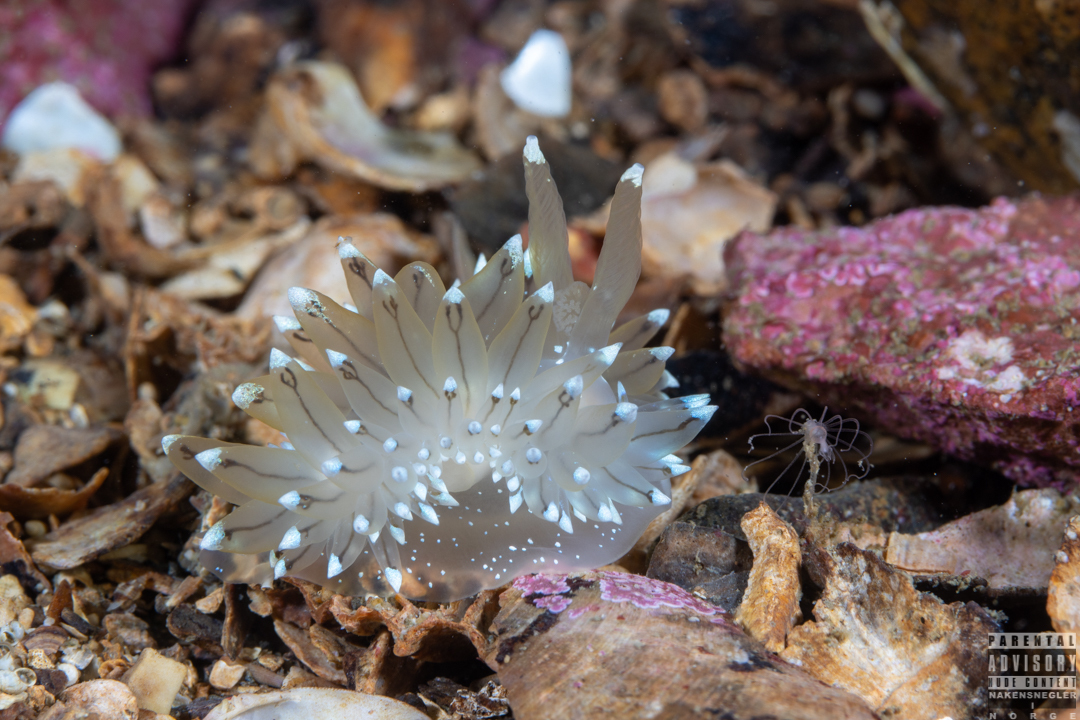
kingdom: Animalia
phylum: Mollusca
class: Gastropoda
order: Nudibranchia
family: Janolidae
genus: Antiopella
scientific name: Antiopella cristata
